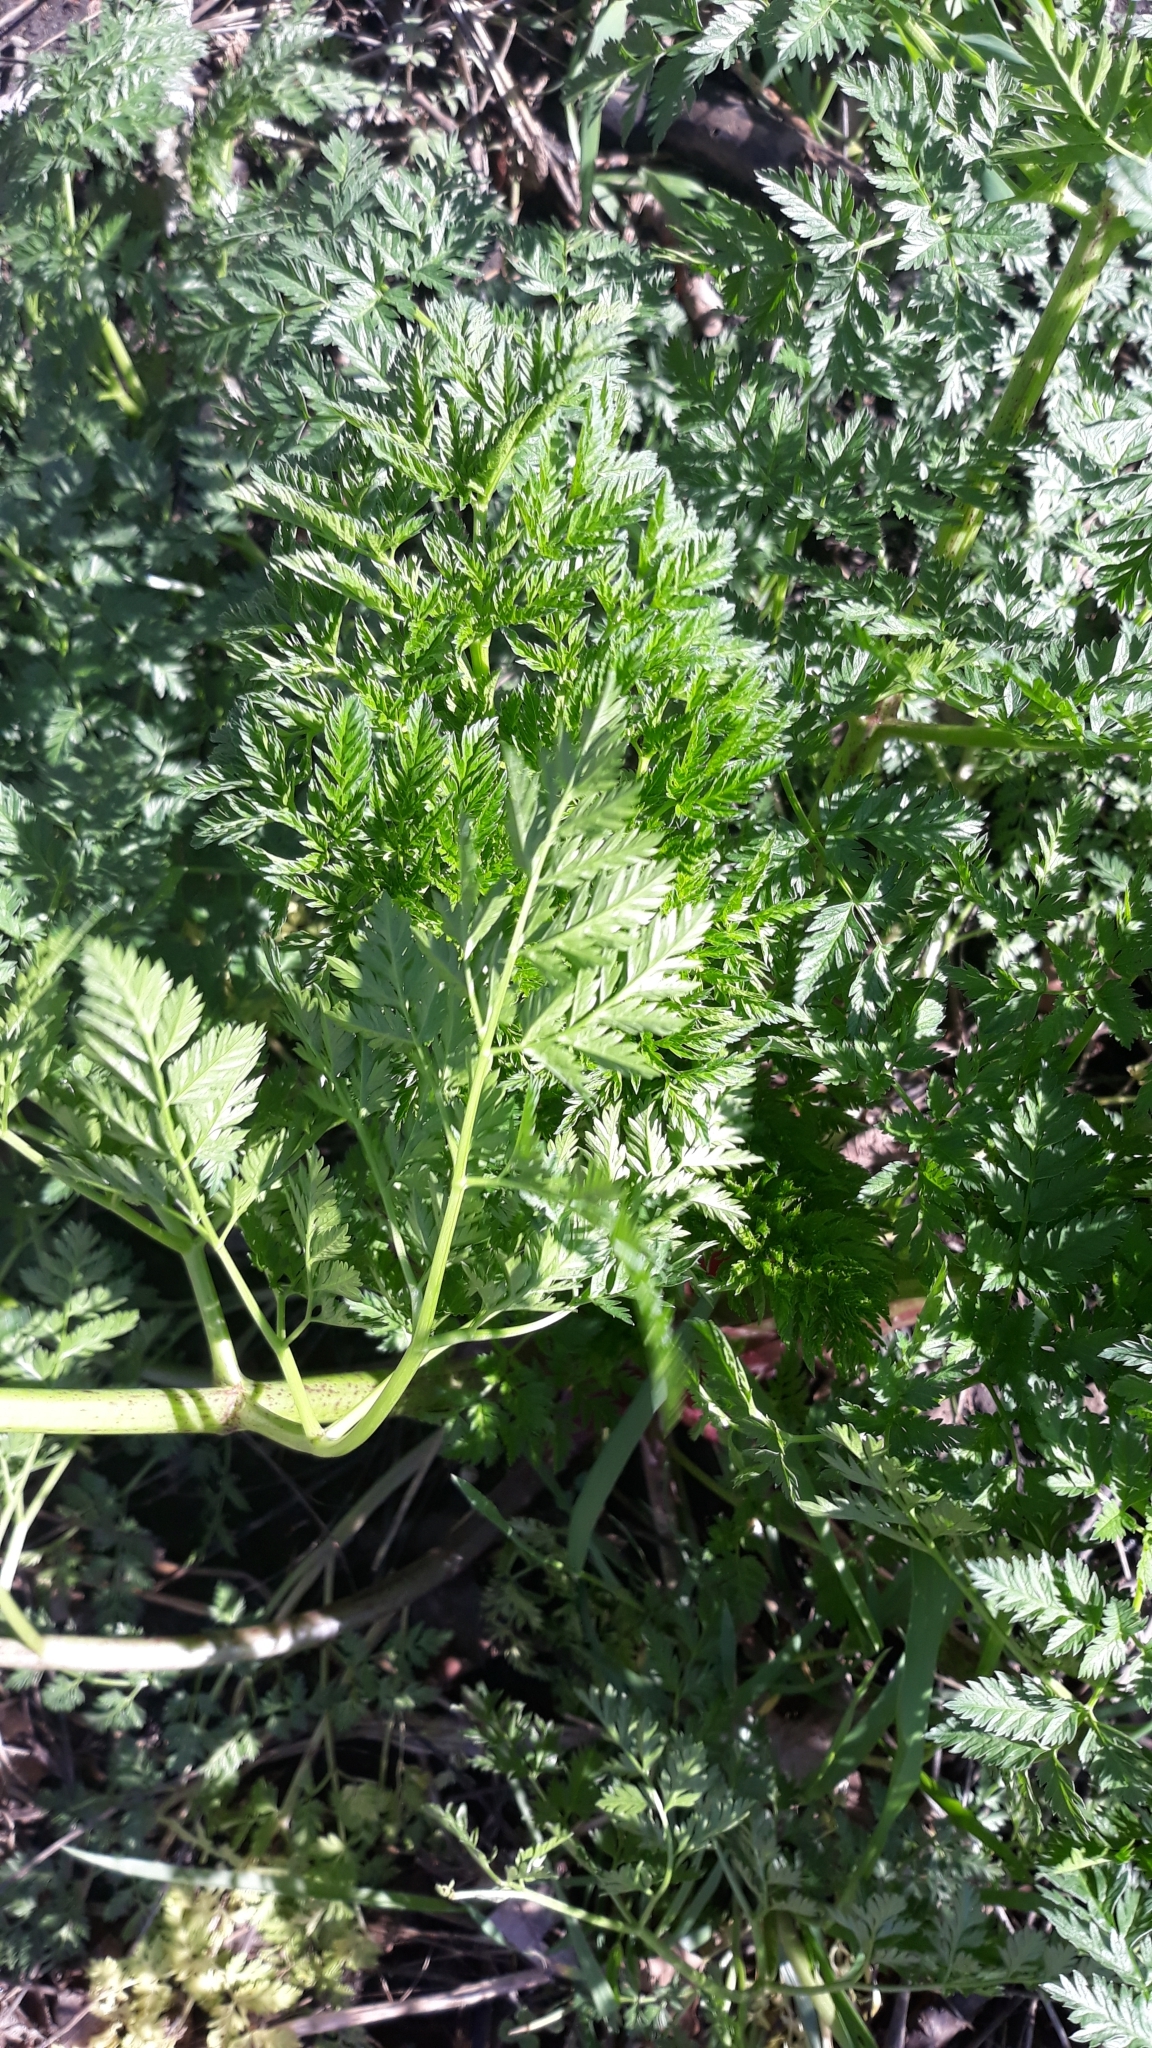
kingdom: Plantae
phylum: Tracheophyta
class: Magnoliopsida
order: Apiales
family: Apiaceae
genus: Conium
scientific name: Conium maculatum
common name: Hemlock
